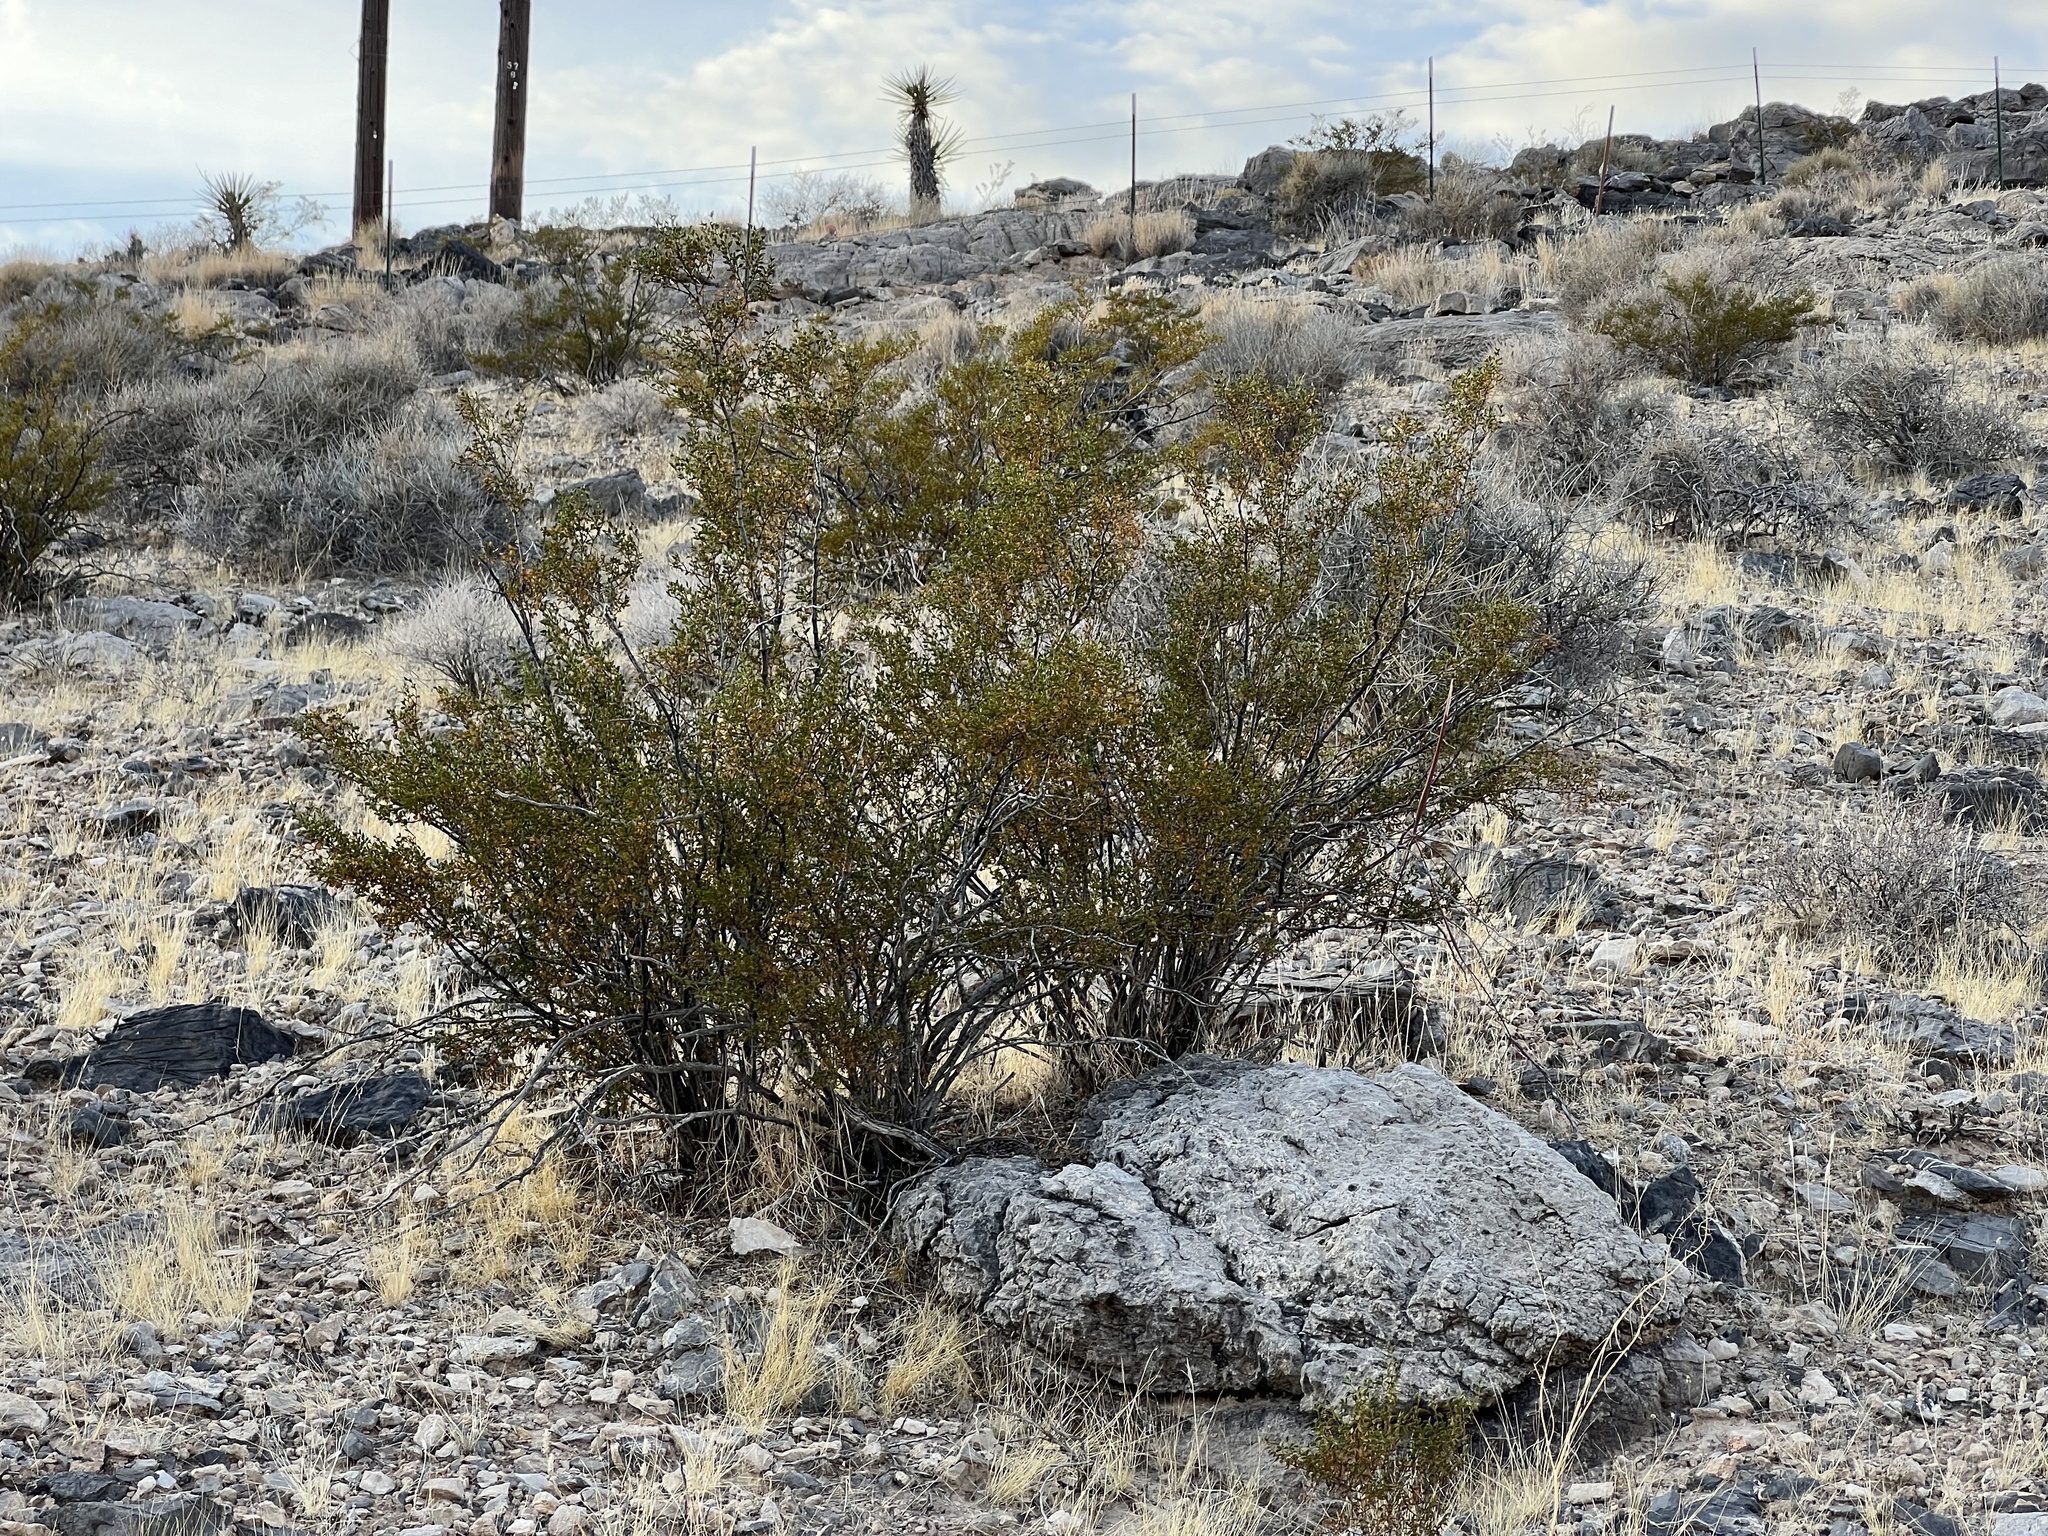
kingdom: Plantae
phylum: Tracheophyta
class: Magnoliopsida
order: Zygophyllales
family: Zygophyllaceae
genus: Larrea
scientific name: Larrea tridentata
